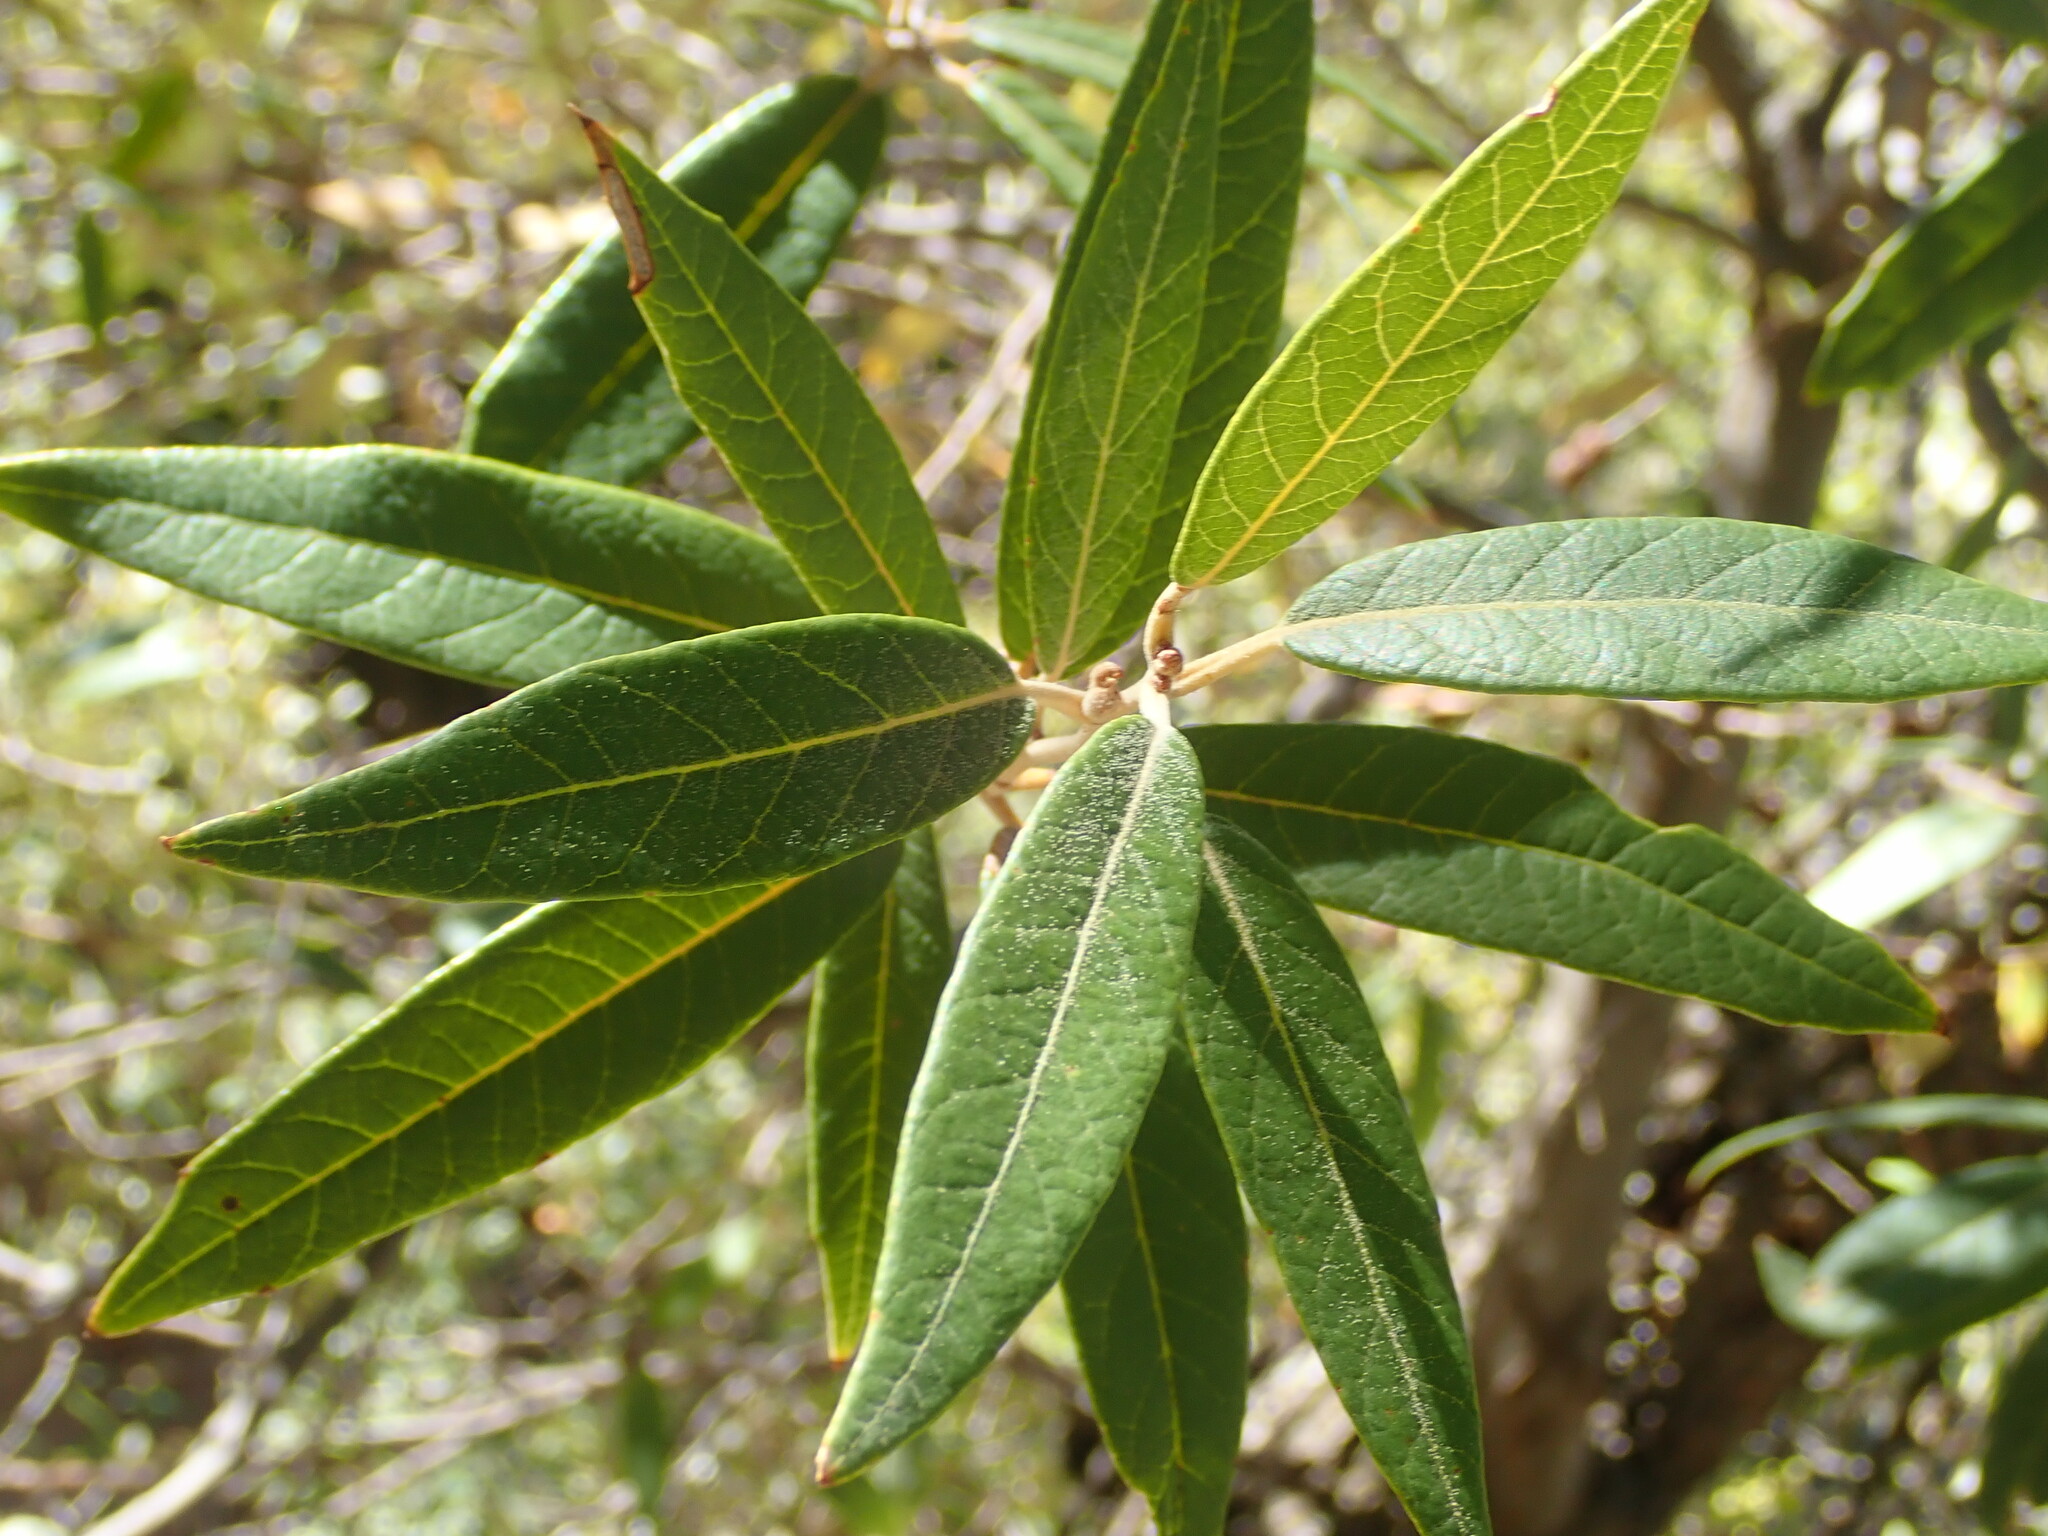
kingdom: Plantae
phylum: Tracheophyta
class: Magnoliopsida
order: Fagales
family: Fagaceae
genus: Quercus
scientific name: Quercus hypoleucoides
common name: Silverleaf oak
